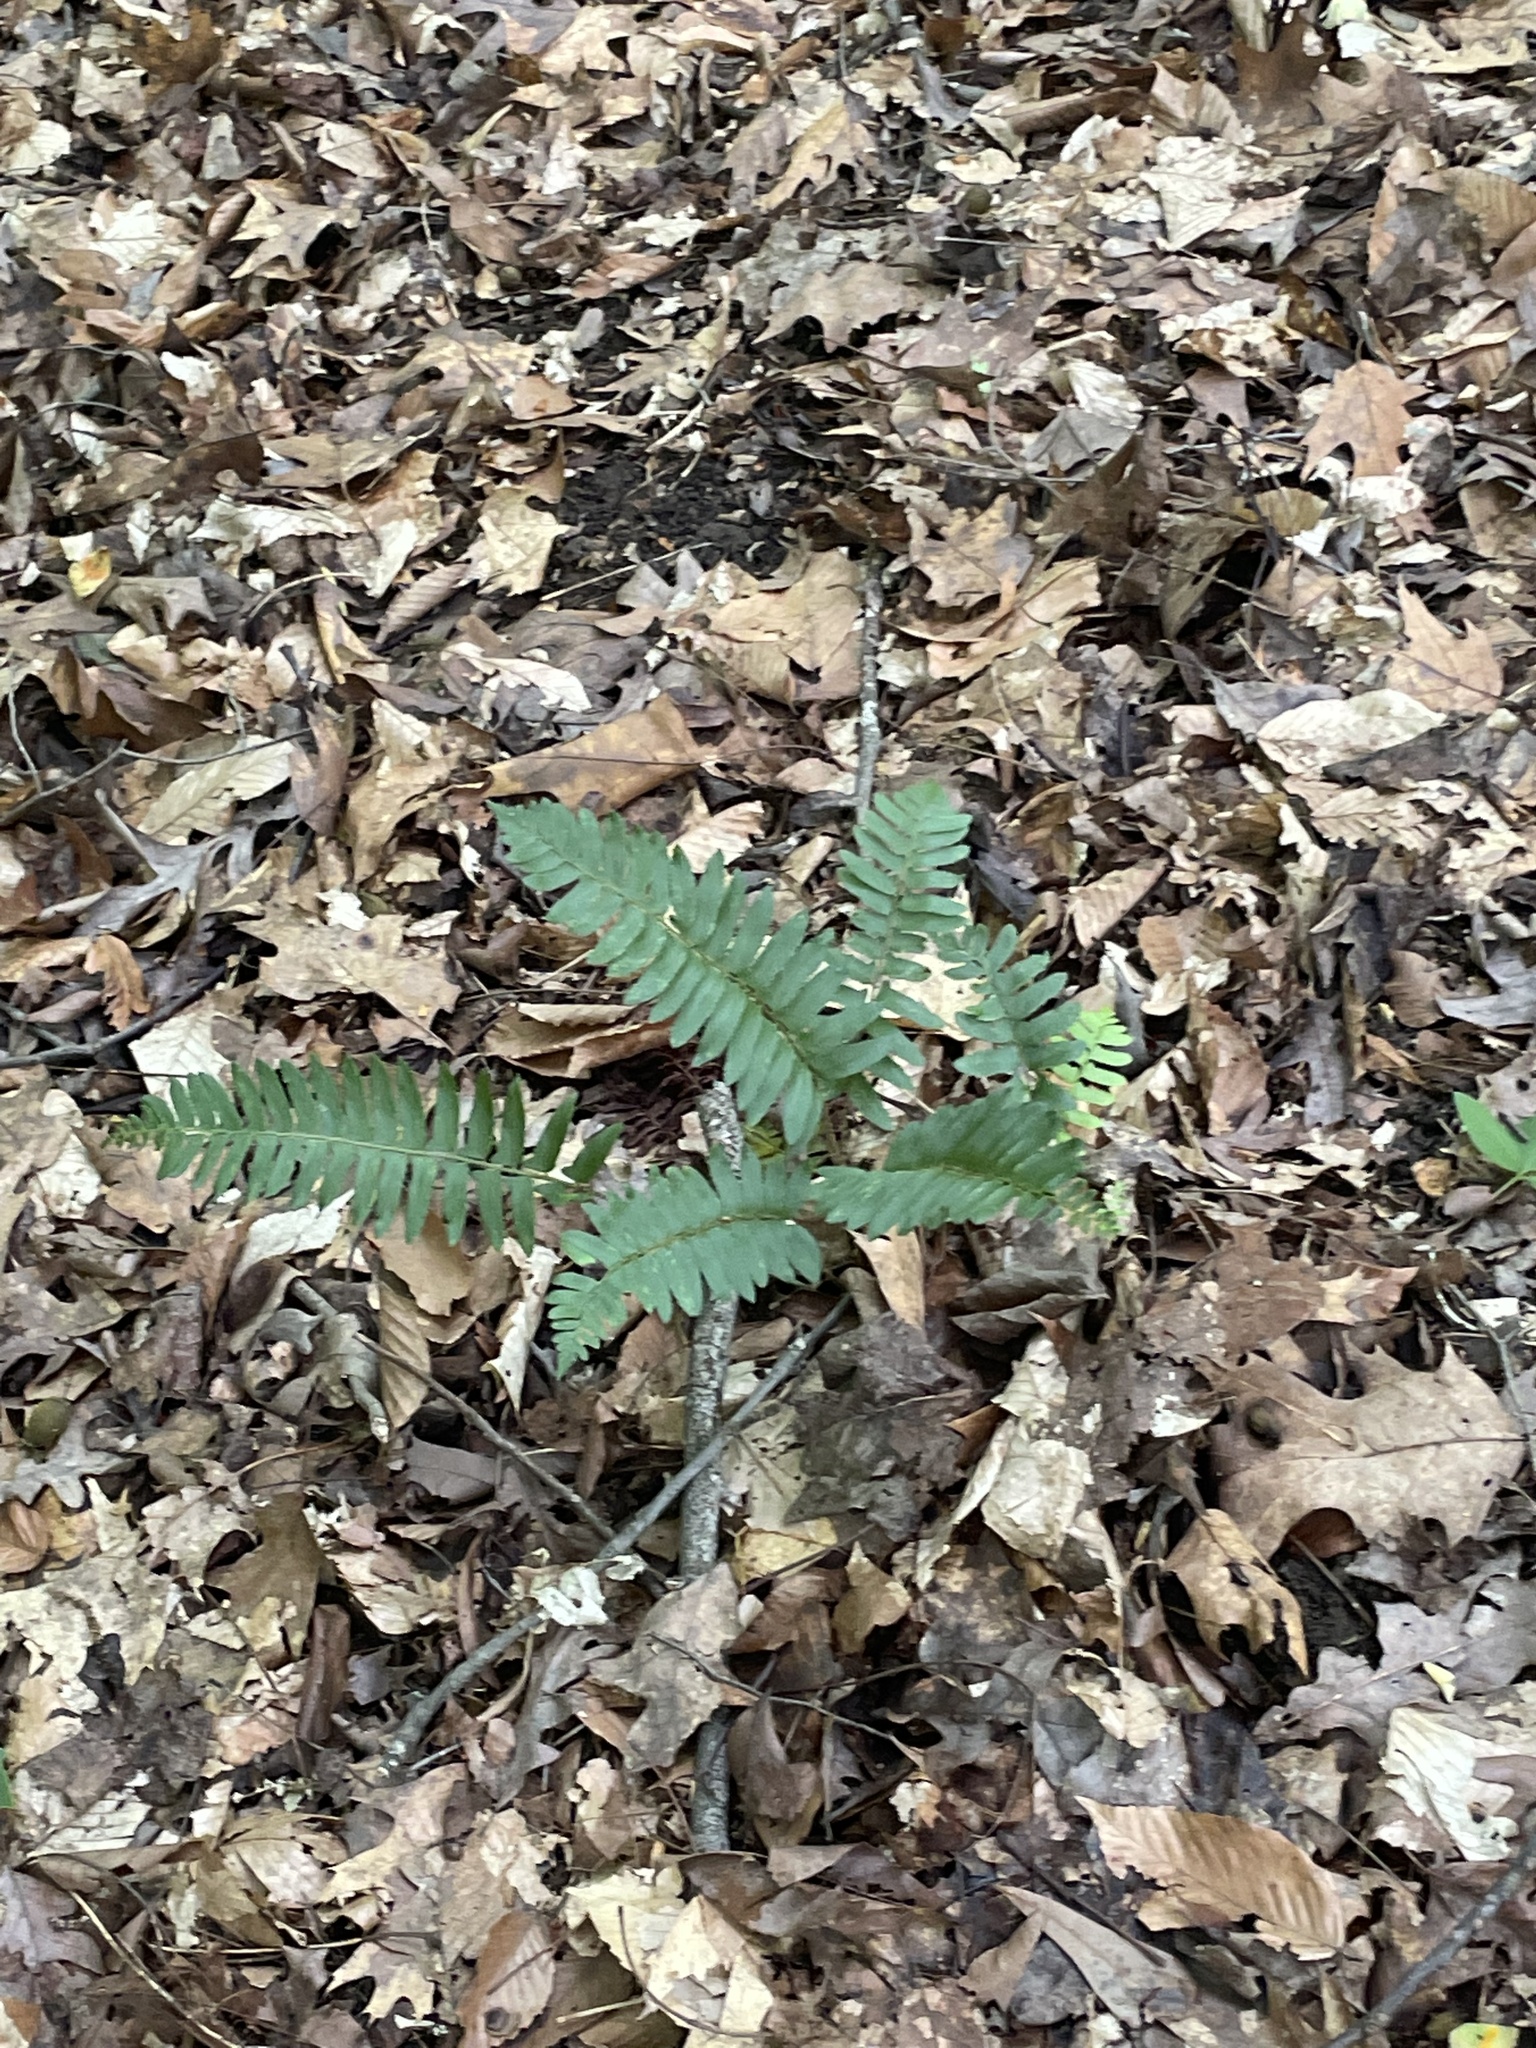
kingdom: Plantae
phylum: Tracheophyta
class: Polypodiopsida
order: Polypodiales
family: Dryopteridaceae
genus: Polystichum
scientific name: Polystichum acrostichoides
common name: Christmas fern
